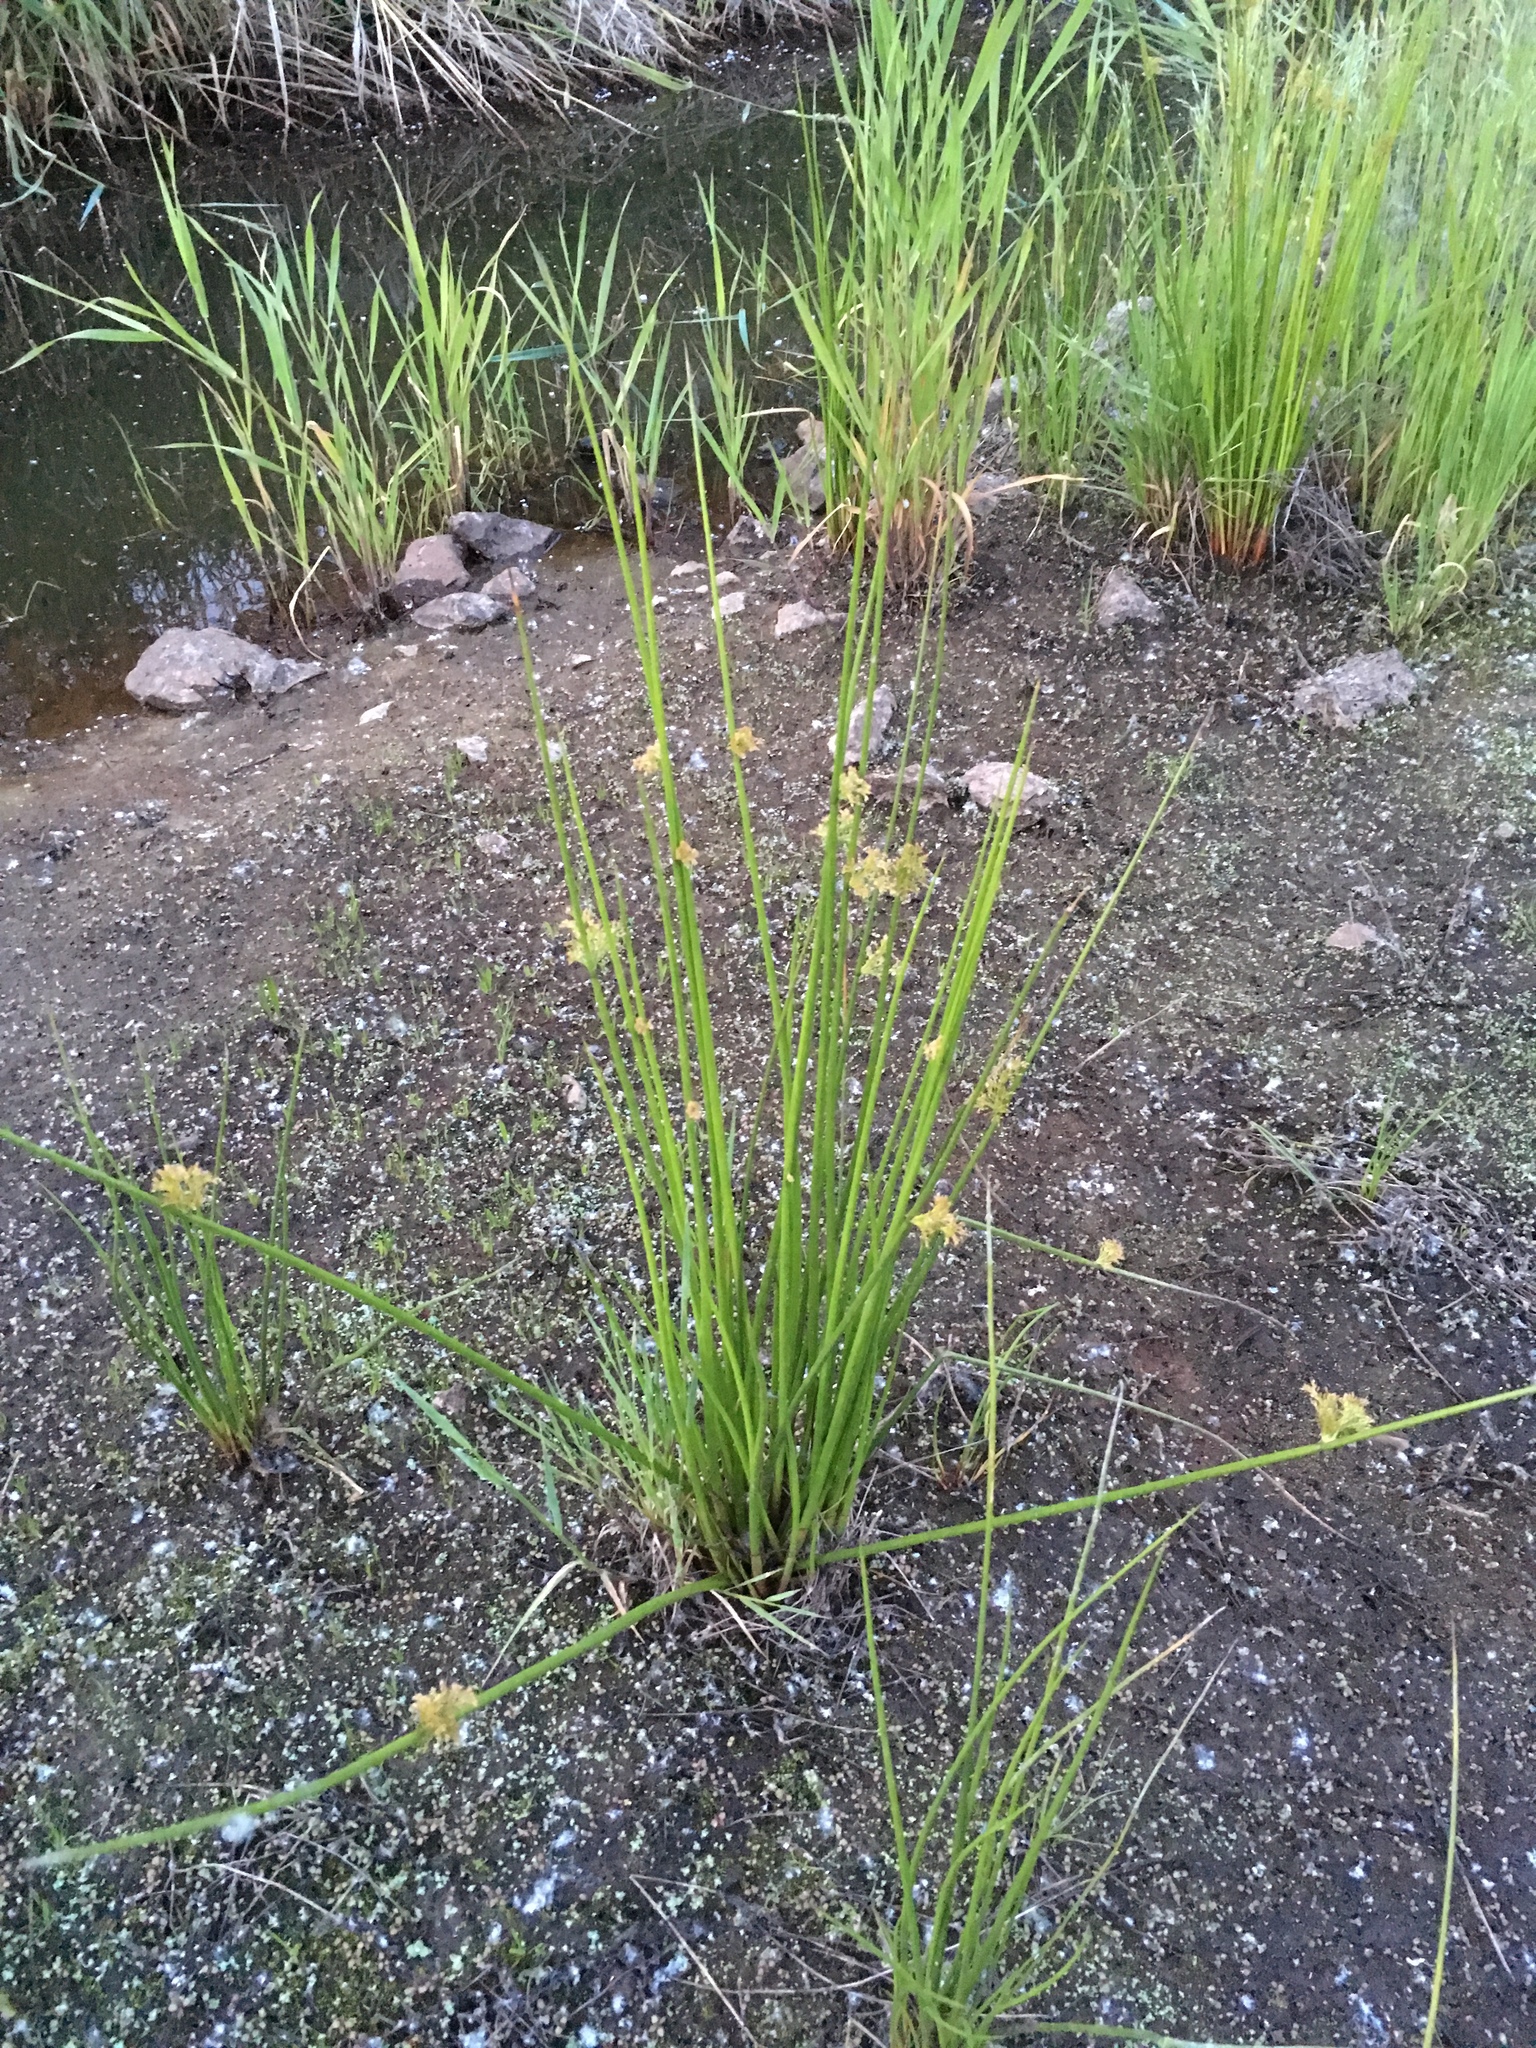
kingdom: Plantae
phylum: Tracheophyta
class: Liliopsida
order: Poales
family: Juncaceae
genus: Juncus
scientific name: Juncus effusus
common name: Soft rush
